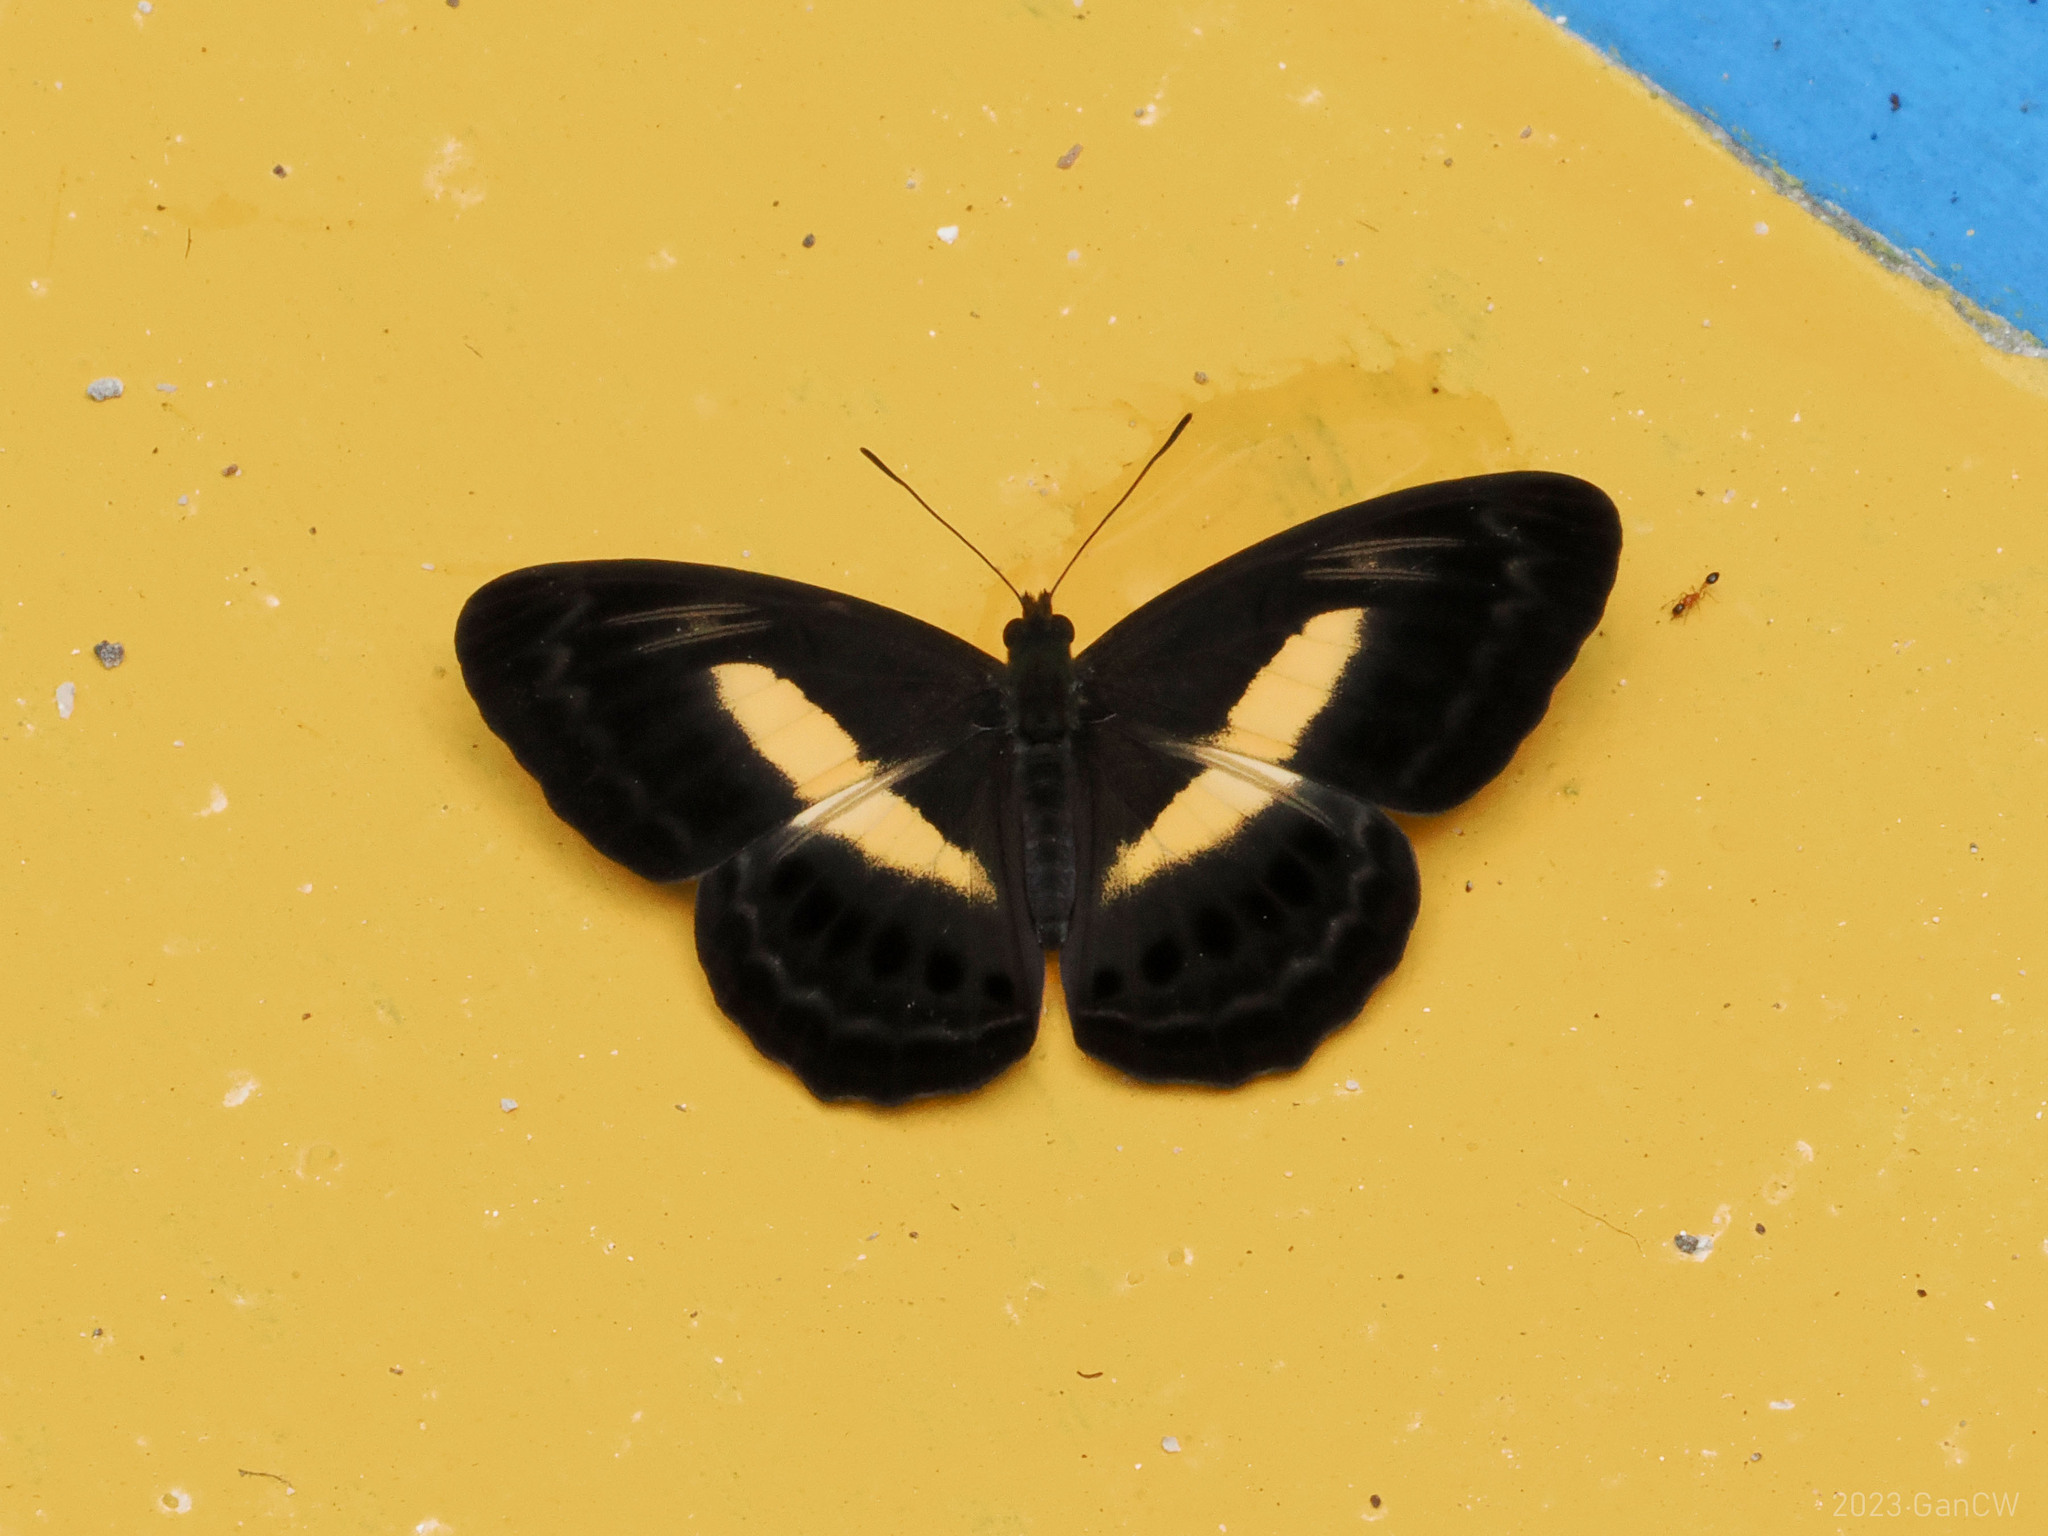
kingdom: Animalia
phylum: Arthropoda
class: Insecta
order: Lepidoptera
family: Nymphalidae
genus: Algia
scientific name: Algia
